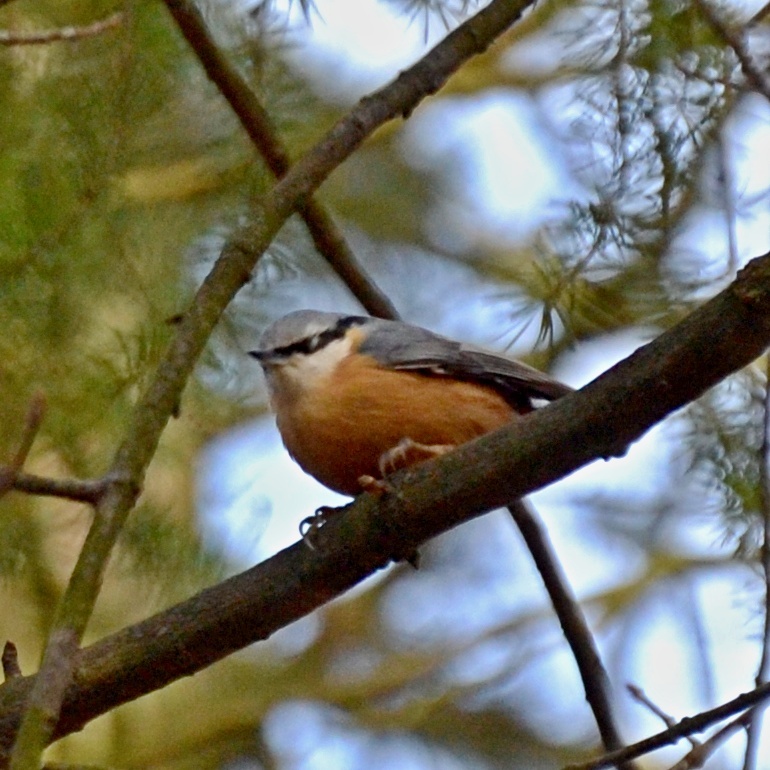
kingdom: Animalia
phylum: Chordata
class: Aves
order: Passeriformes
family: Sittidae
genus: Sitta
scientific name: Sitta europaea
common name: Eurasian nuthatch
